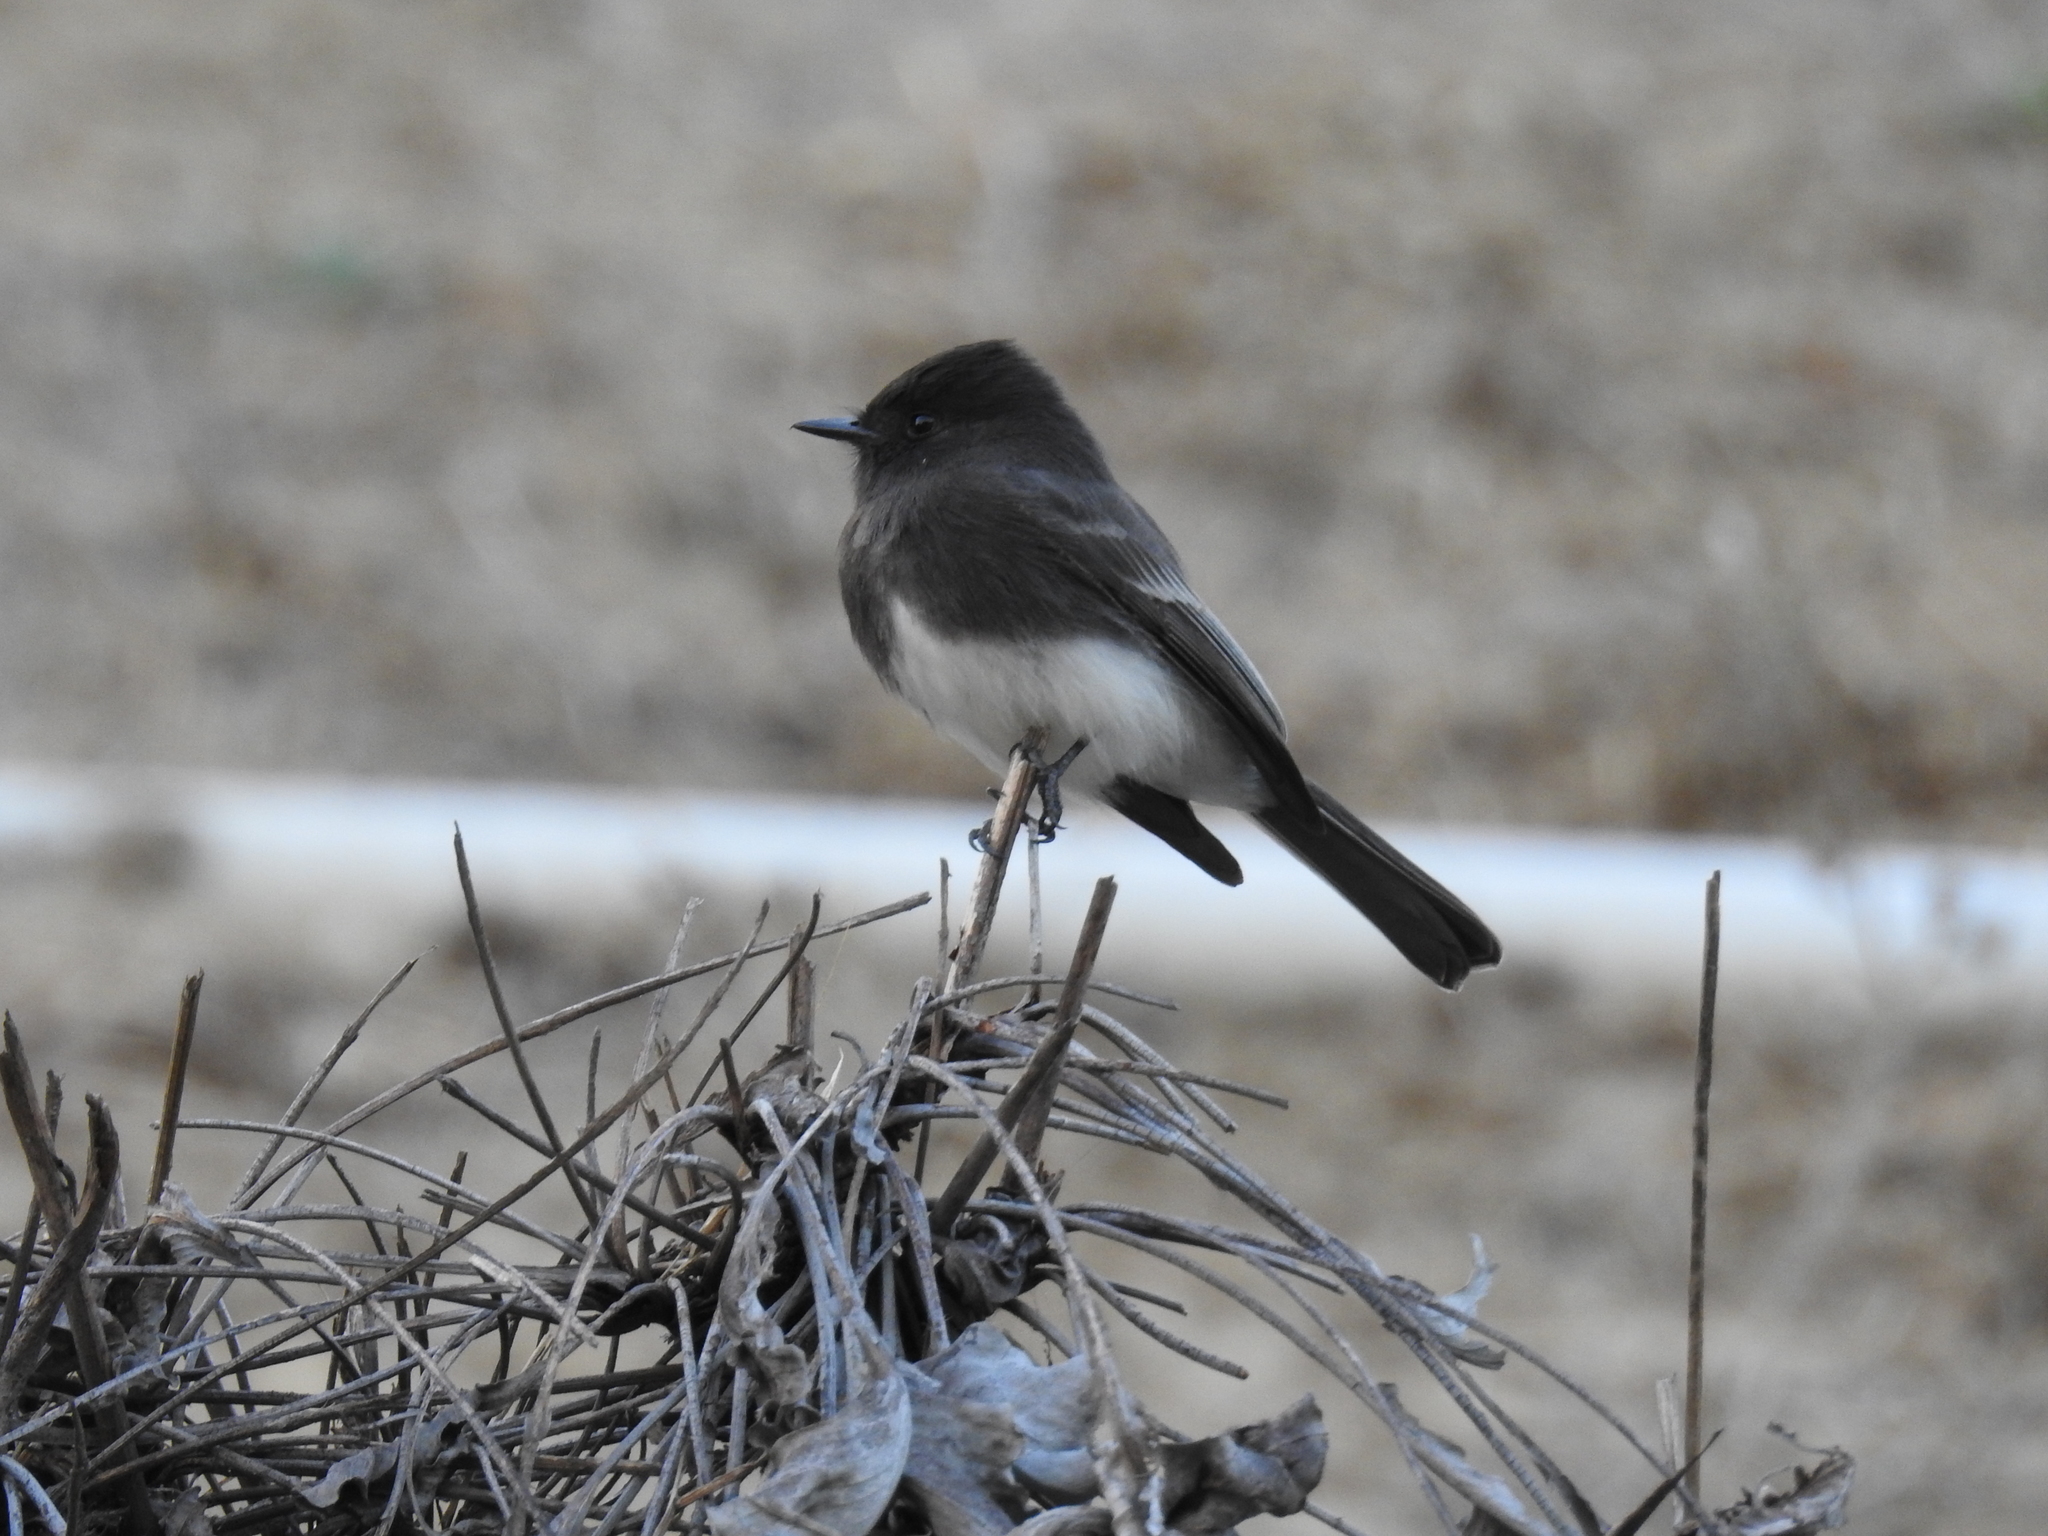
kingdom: Animalia
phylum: Chordata
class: Aves
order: Passeriformes
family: Tyrannidae
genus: Sayornis
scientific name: Sayornis nigricans
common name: Black phoebe
